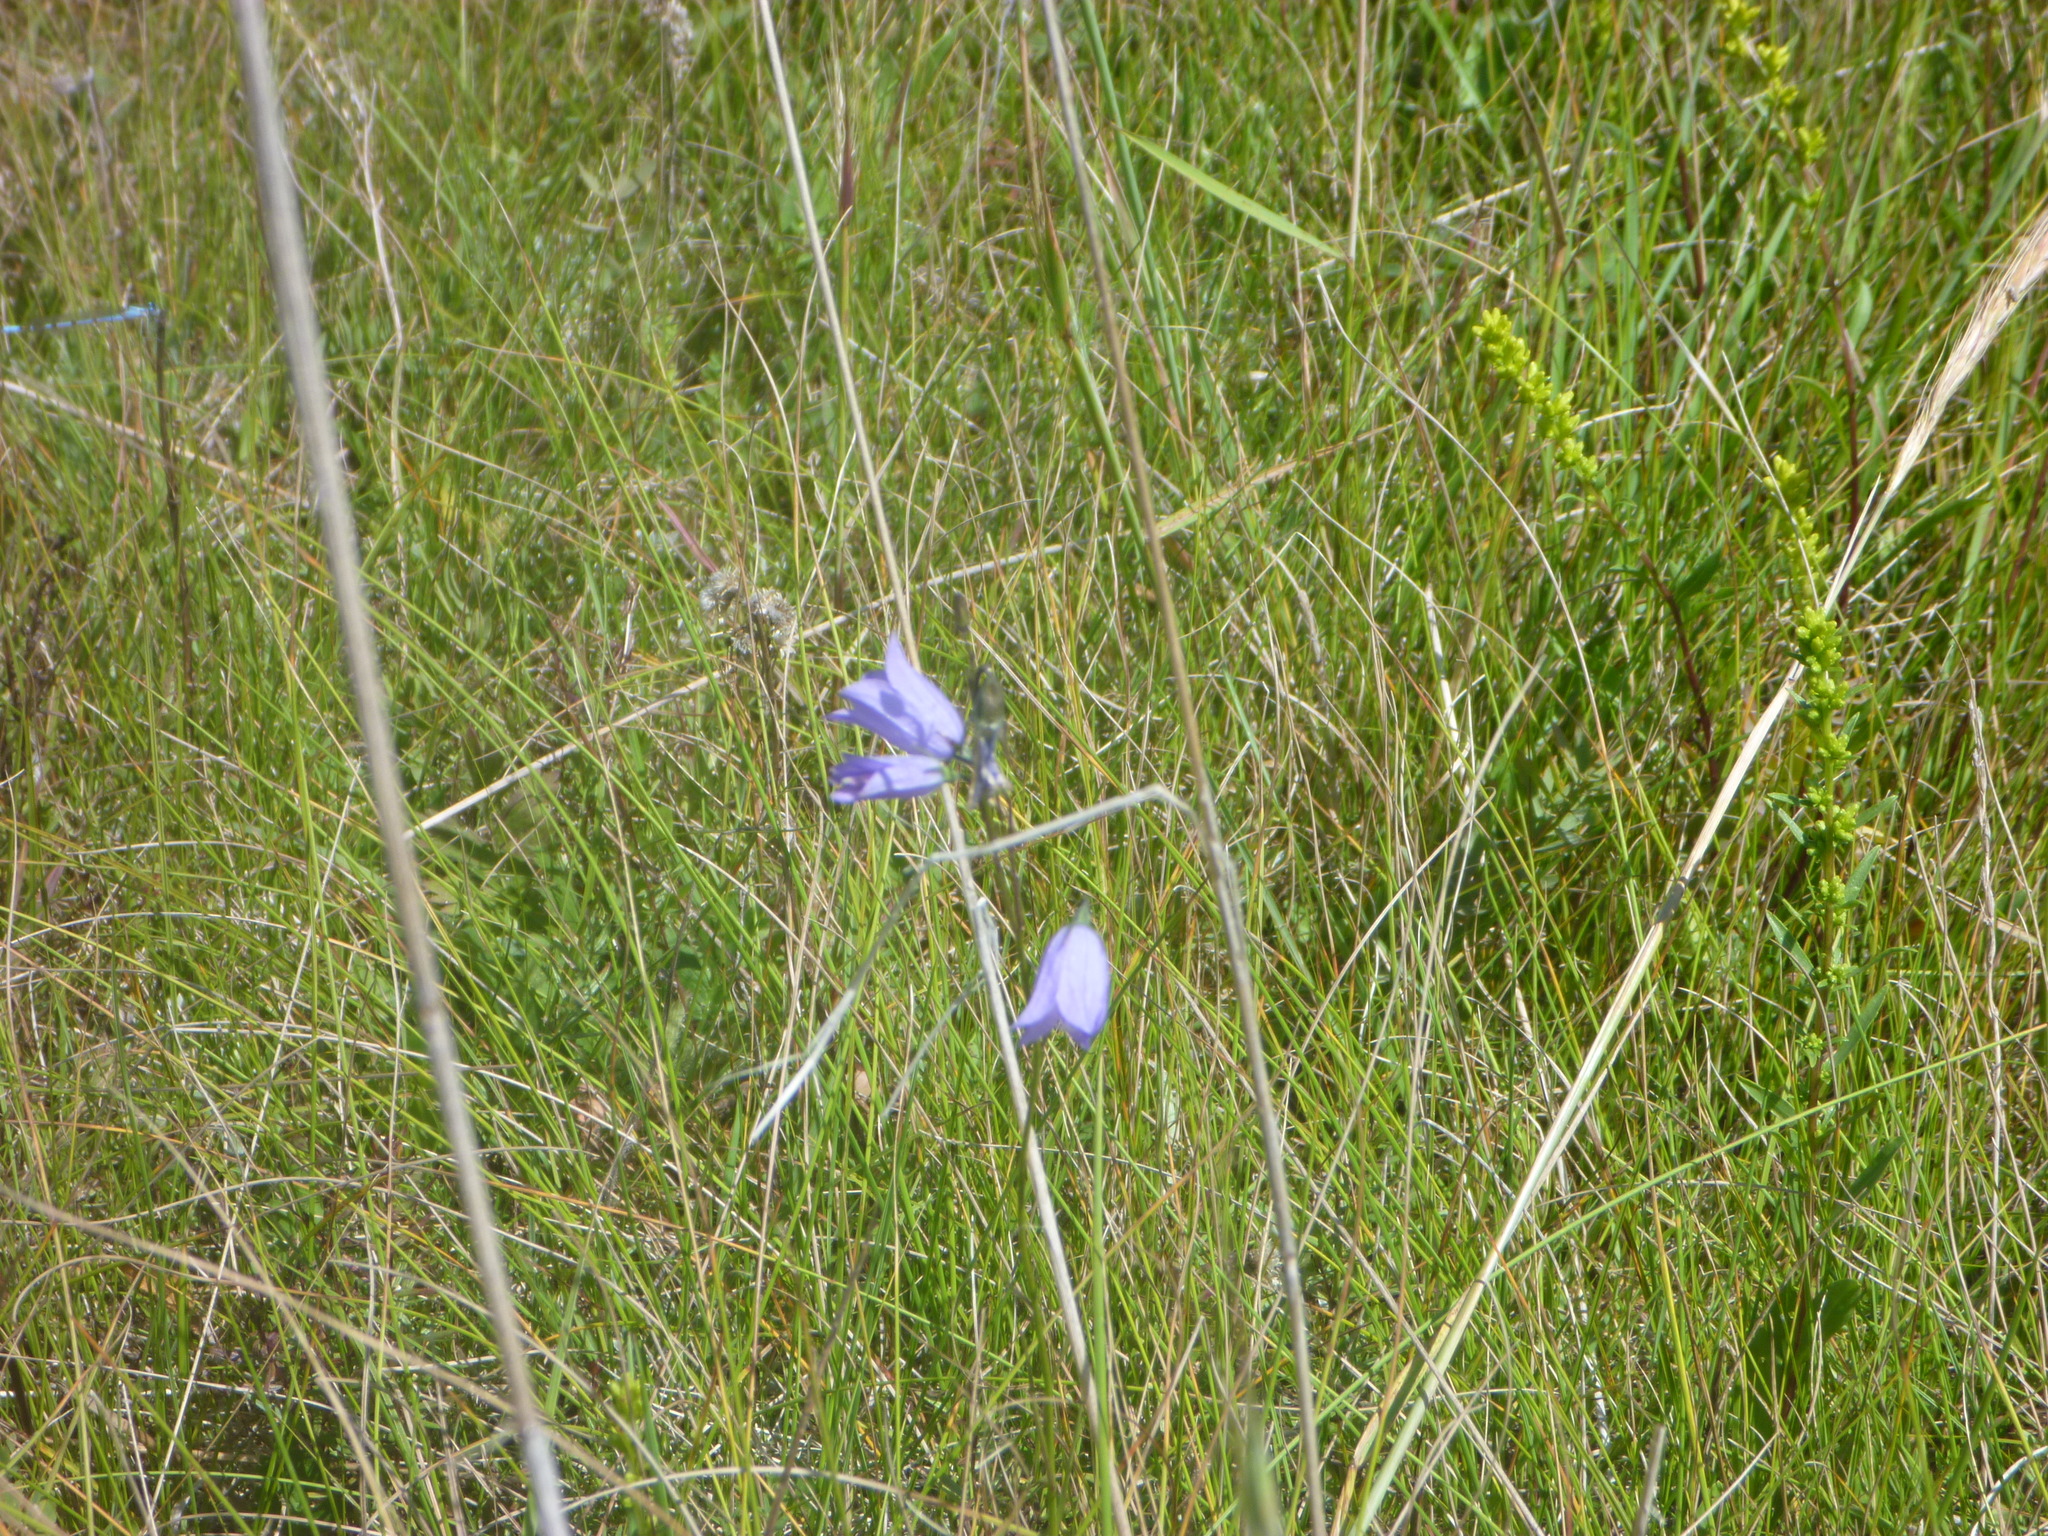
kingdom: Plantae
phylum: Tracheophyta
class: Magnoliopsida
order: Asterales
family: Campanulaceae
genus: Campanula
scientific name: Campanula alaskana
